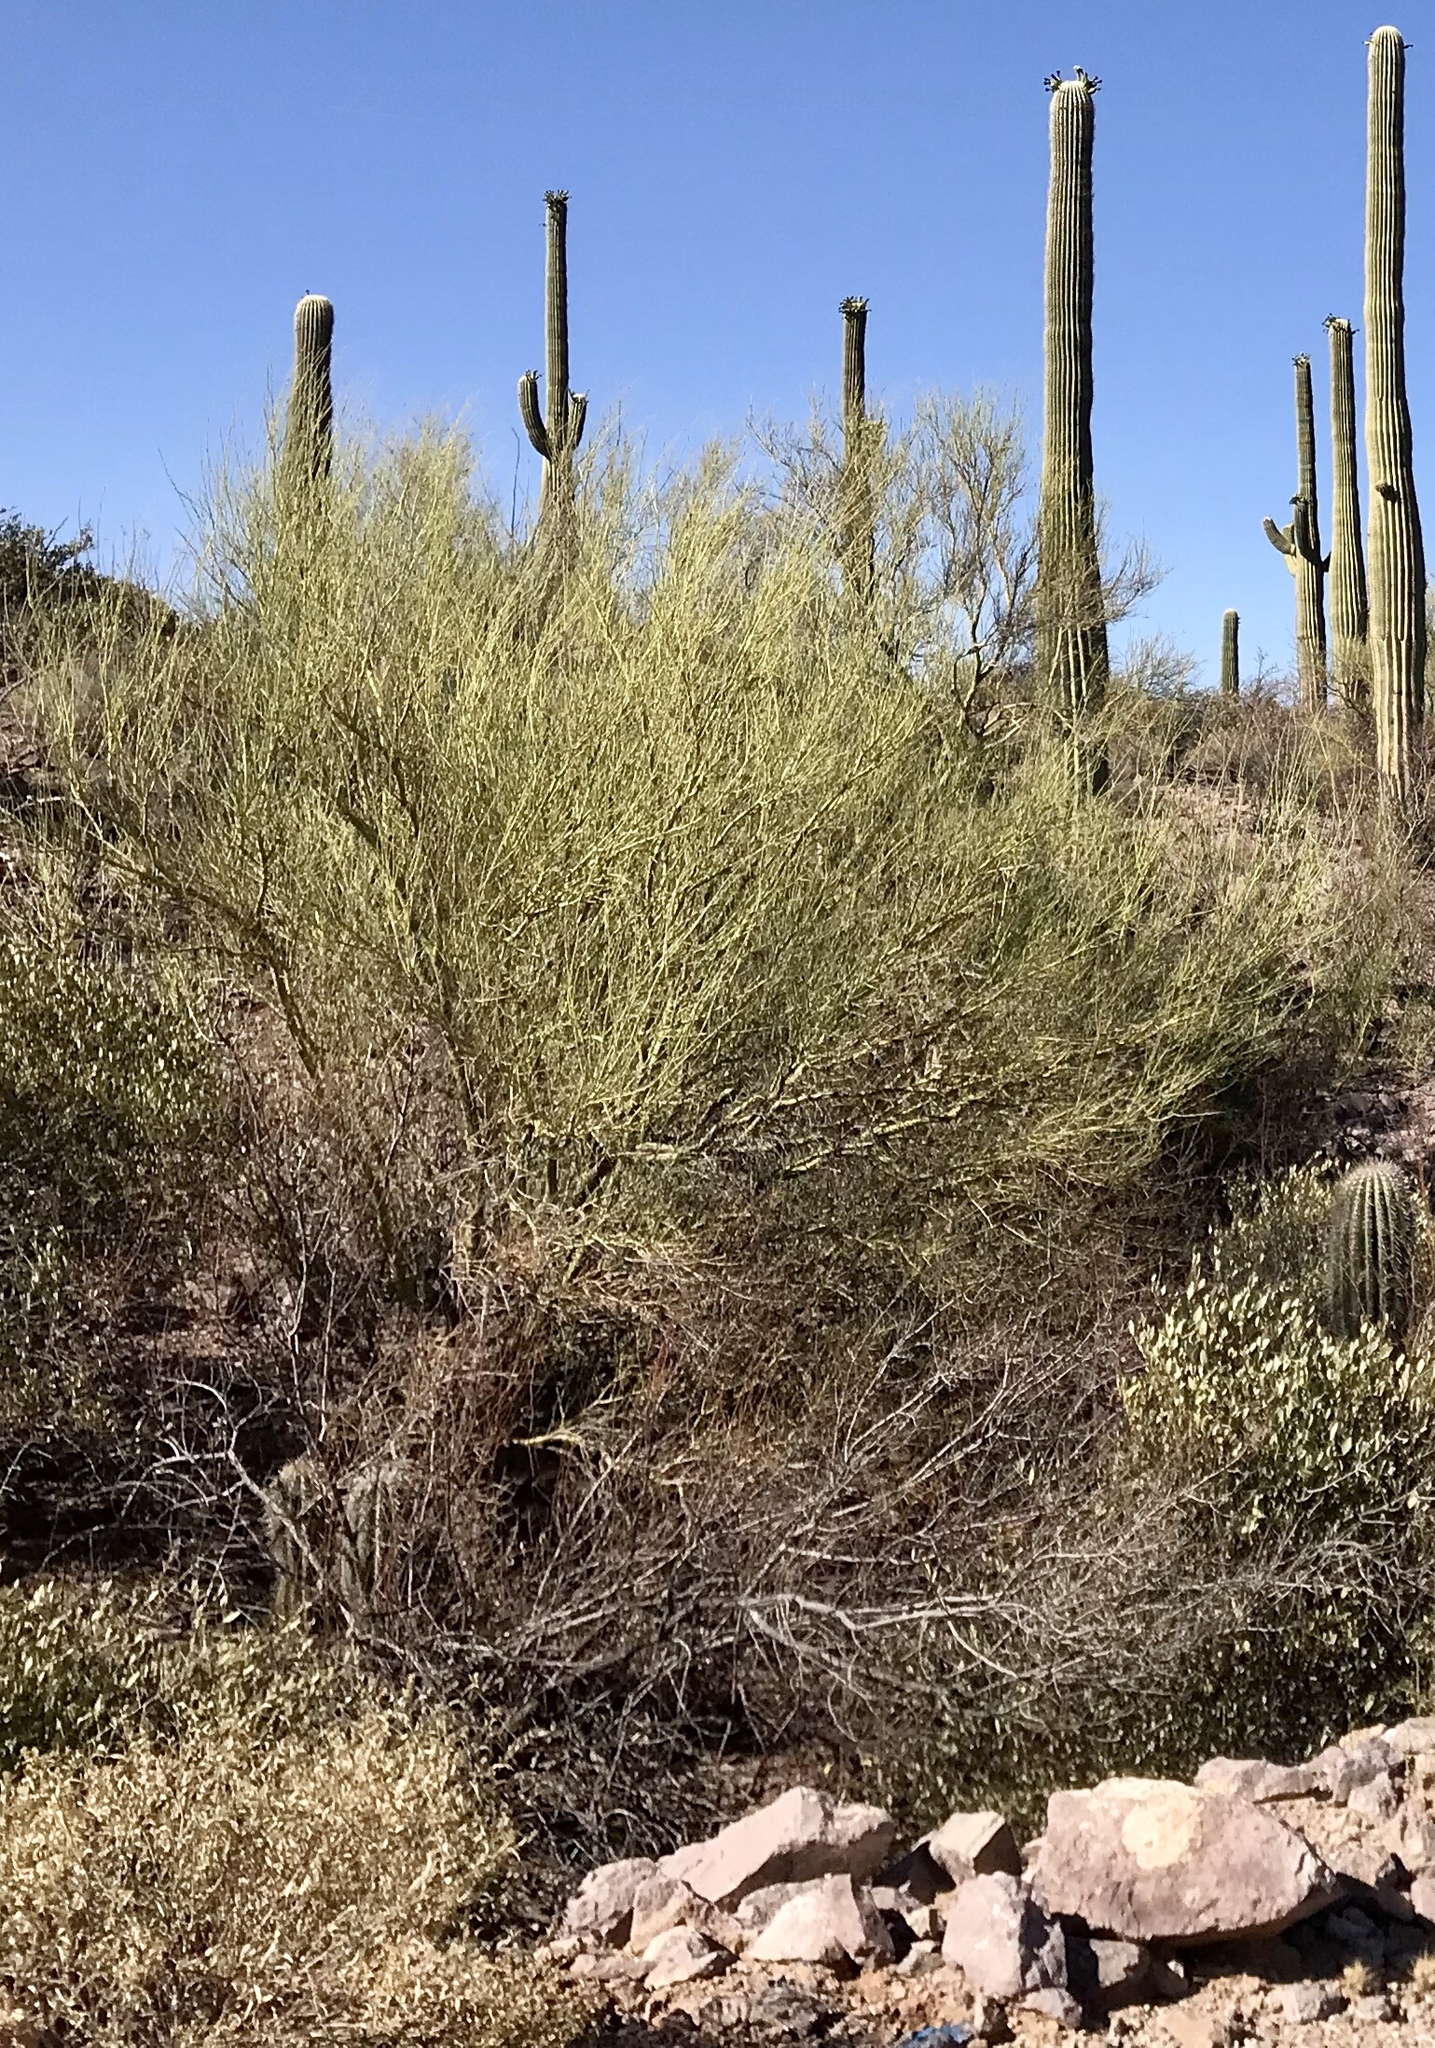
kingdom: Plantae
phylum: Tracheophyta
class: Magnoliopsida
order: Fabales
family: Fabaceae
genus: Parkinsonia
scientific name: Parkinsonia microphylla
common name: Yellow paloverde
